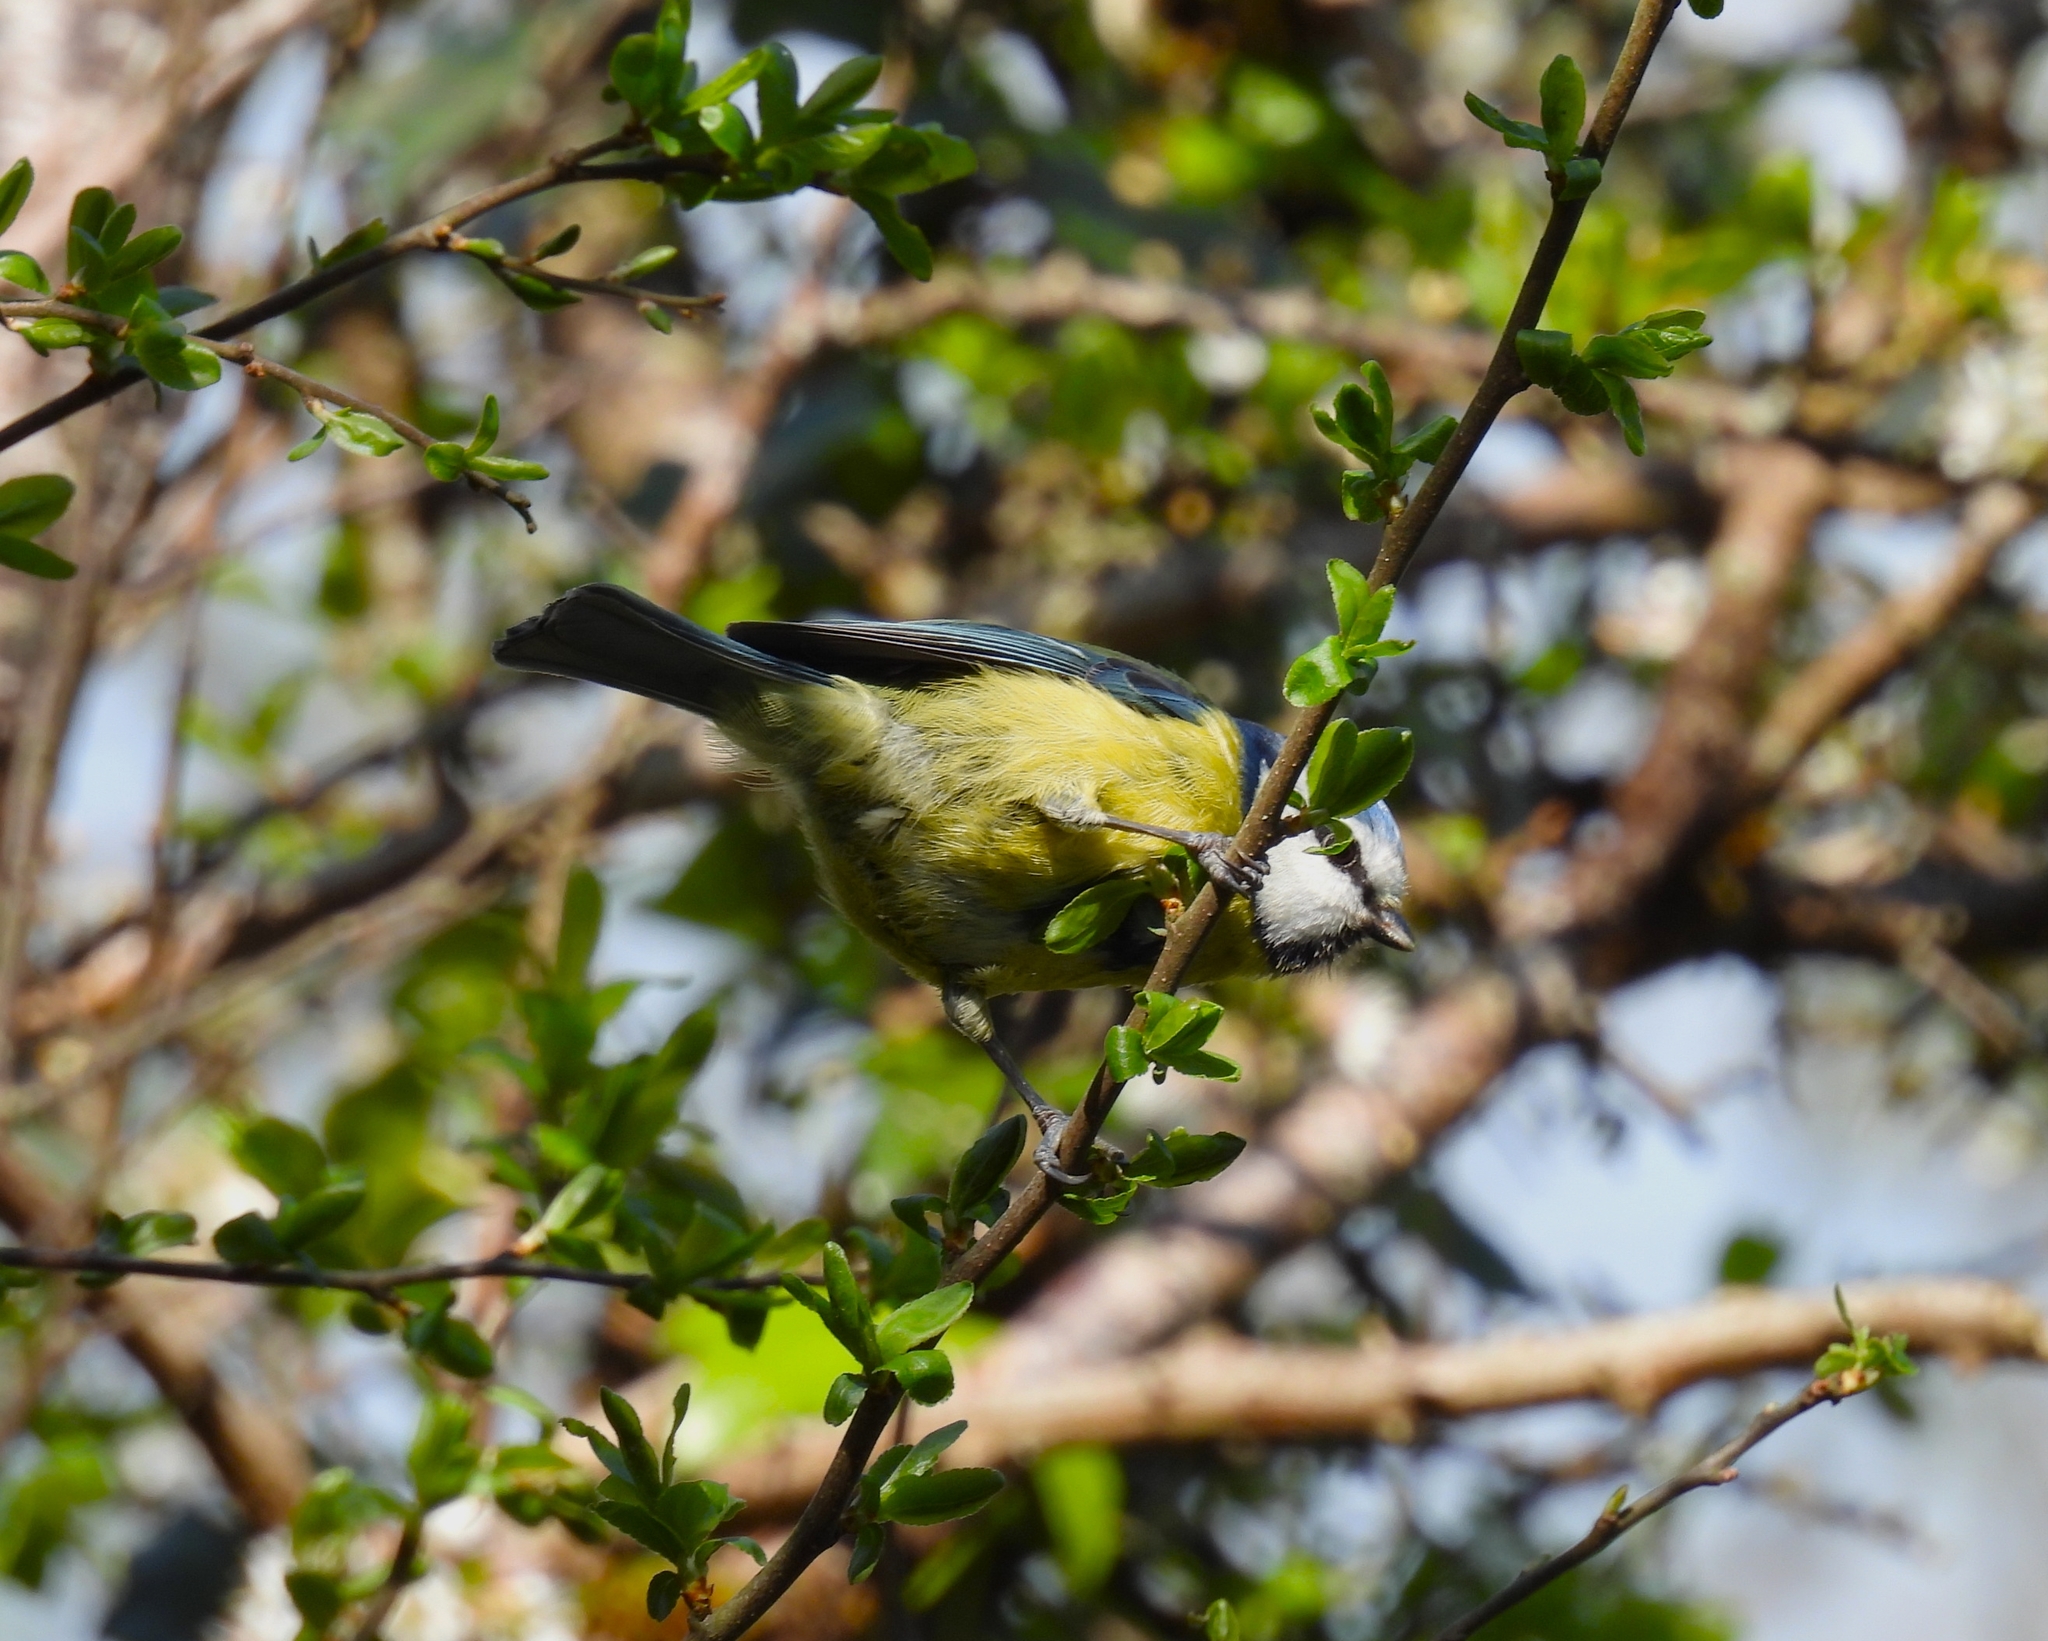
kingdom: Animalia
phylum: Chordata
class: Aves
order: Passeriformes
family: Paridae
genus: Cyanistes
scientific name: Cyanistes caeruleus
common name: Eurasian blue tit
